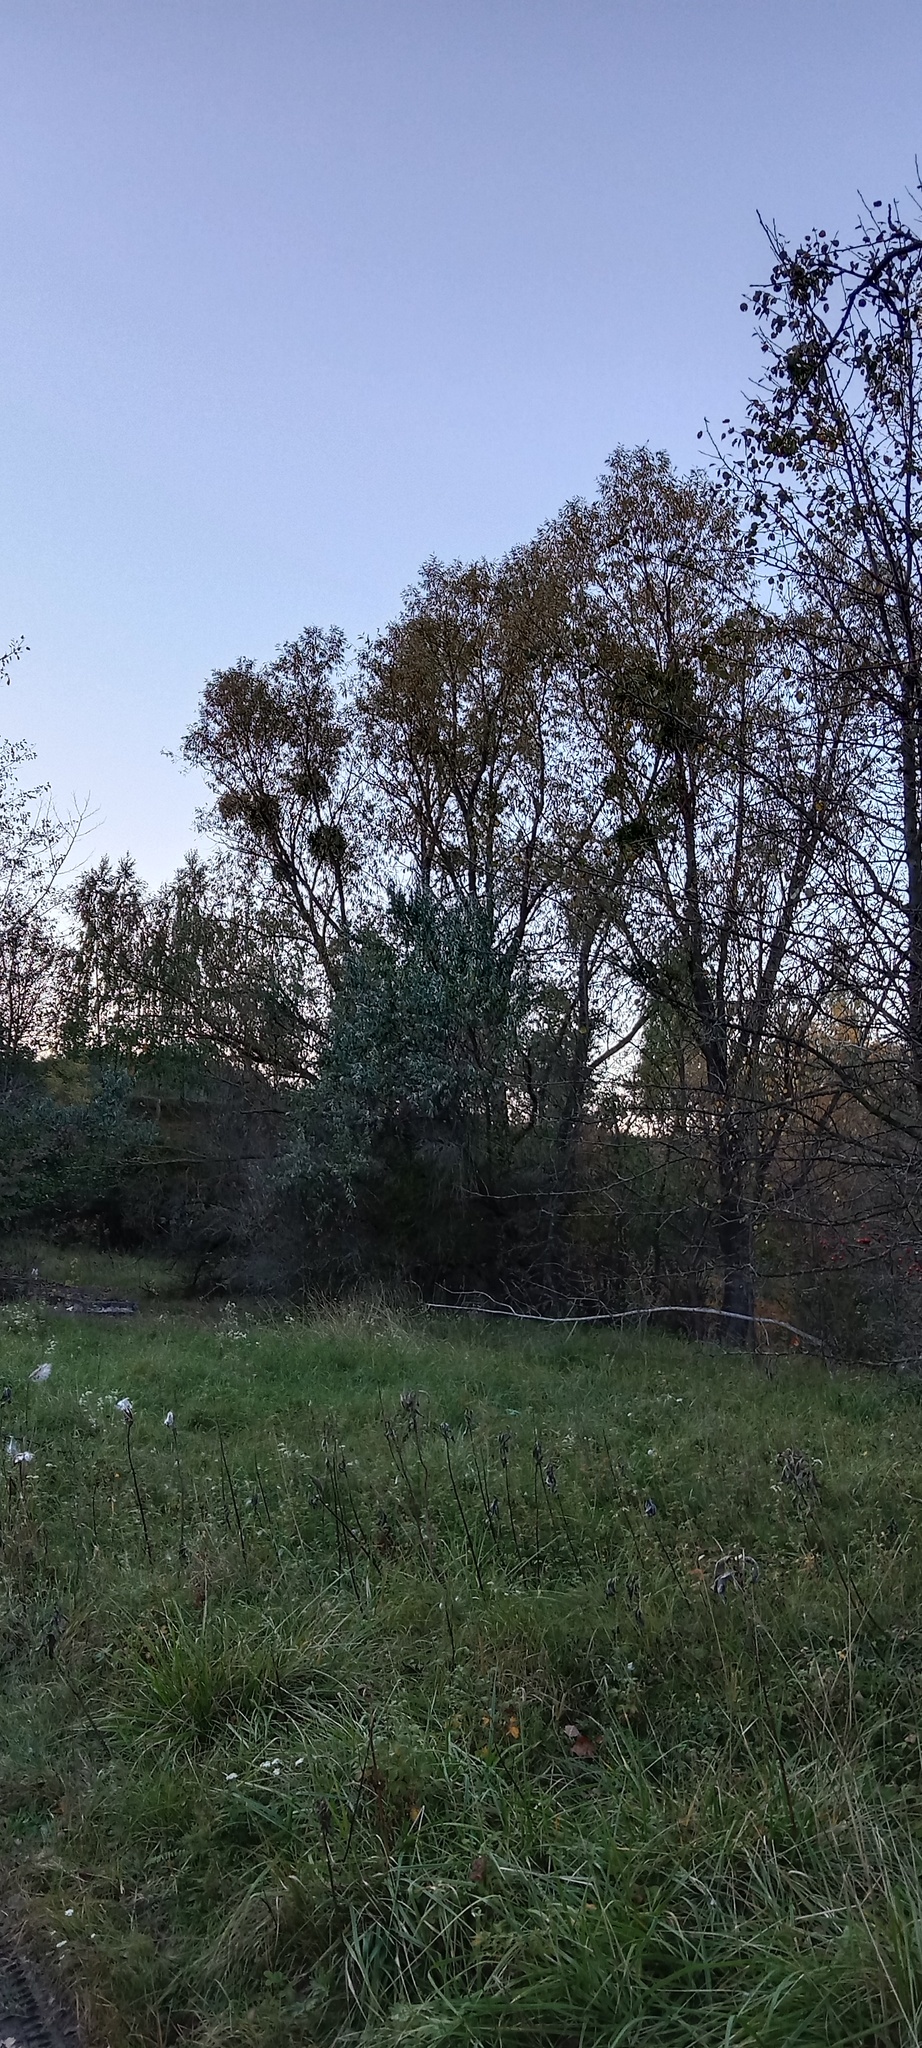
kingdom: Plantae
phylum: Tracheophyta
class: Magnoliopsida
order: Santalales
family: Viscaceae
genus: Viscum
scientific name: Viscum album
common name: Mistletoe
